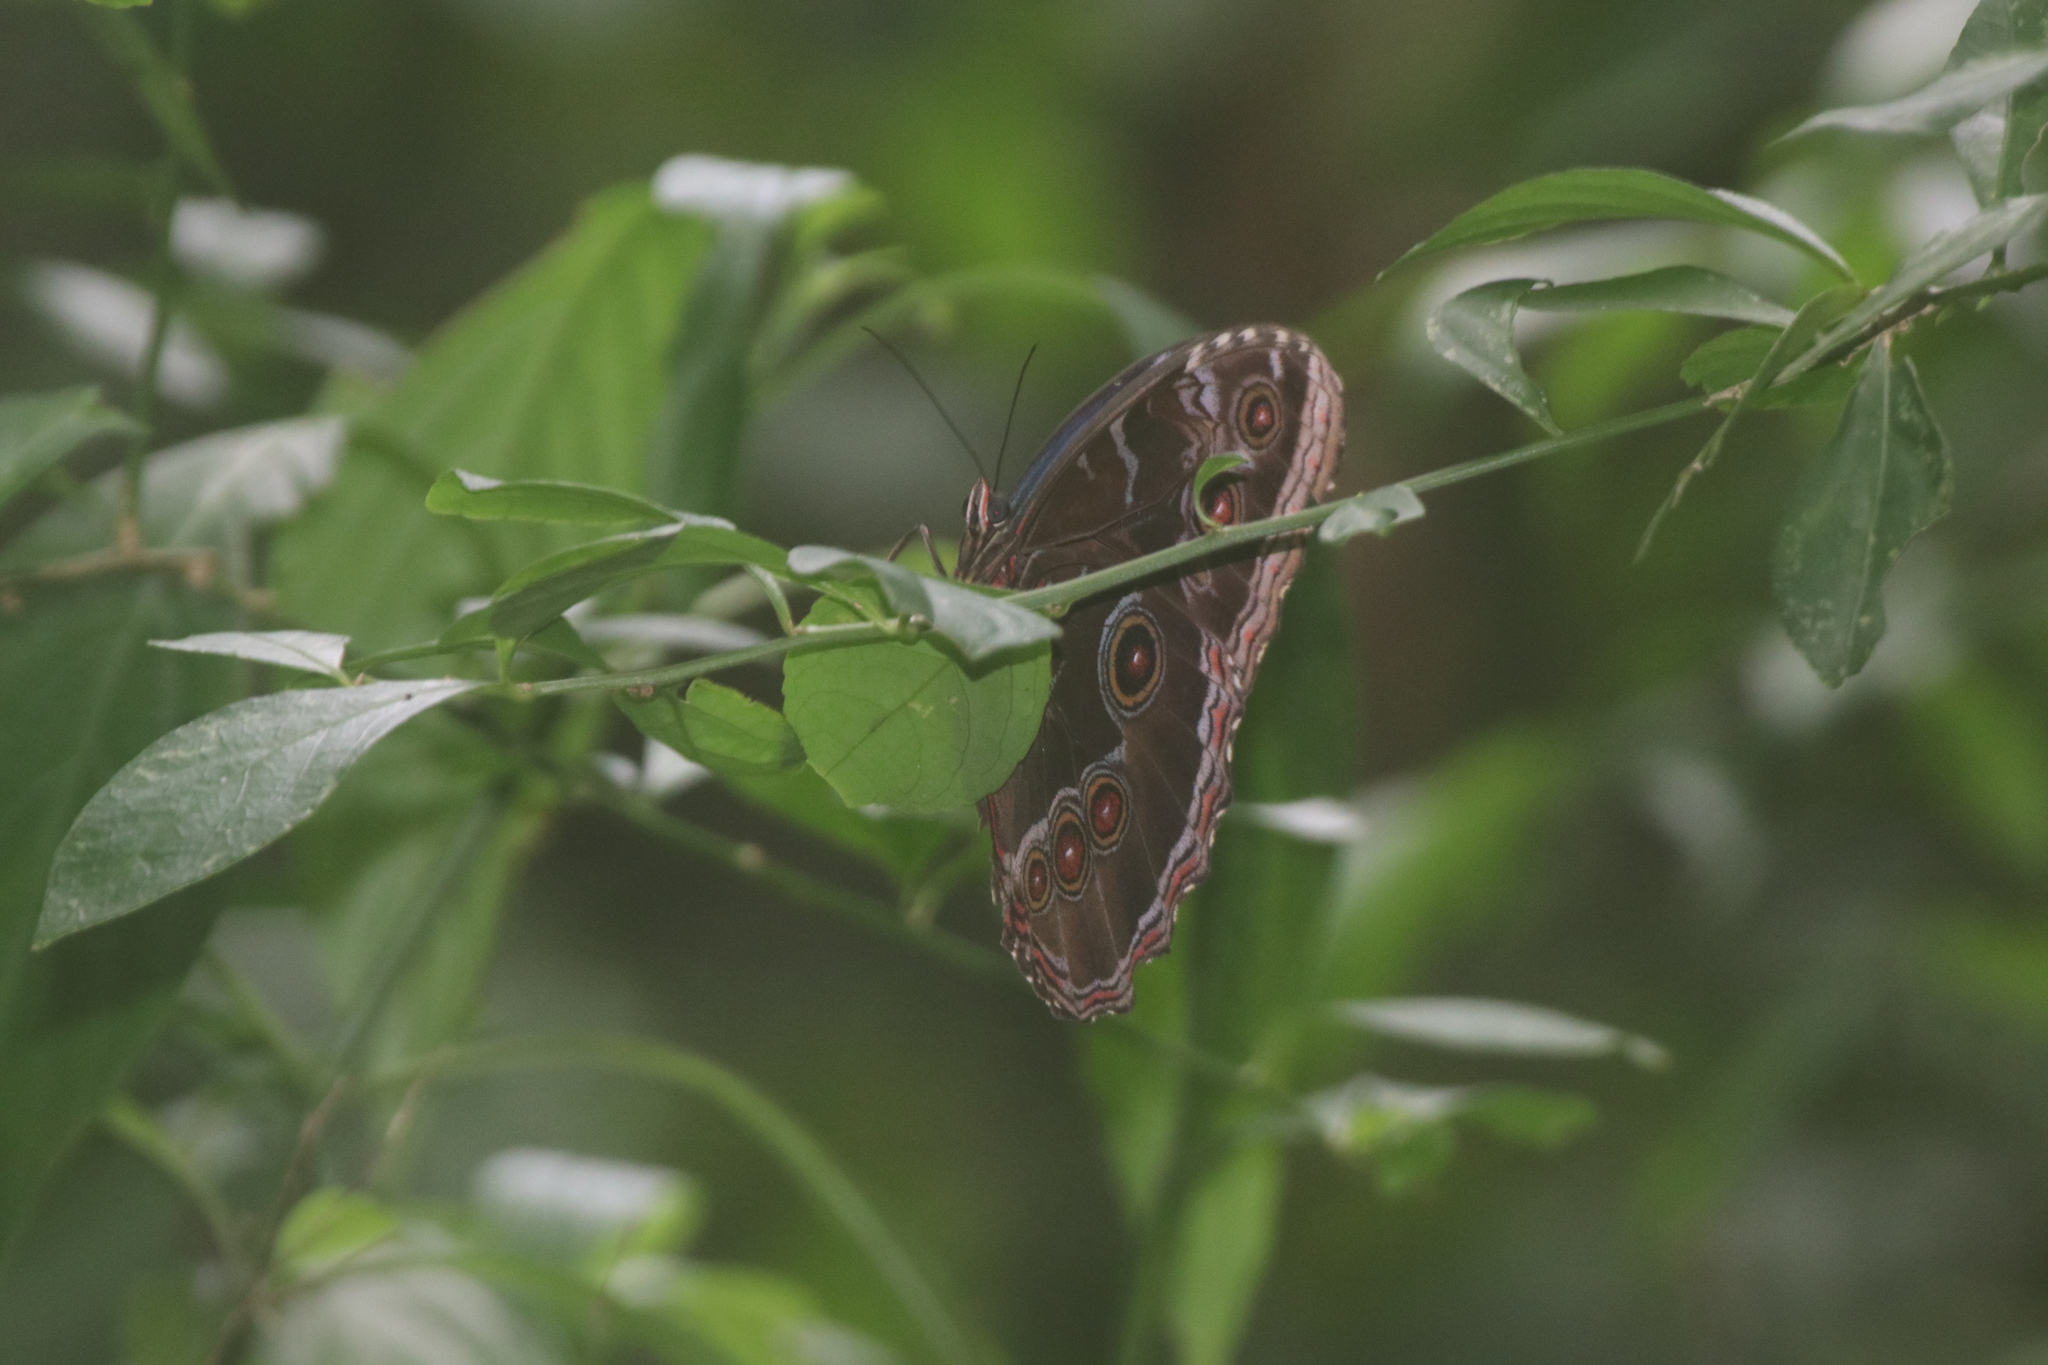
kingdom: Animalia
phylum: Arthropoda
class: Insecta
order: Lepidoptera
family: Nymphalidae
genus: Morpho
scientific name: Morpho helenor
